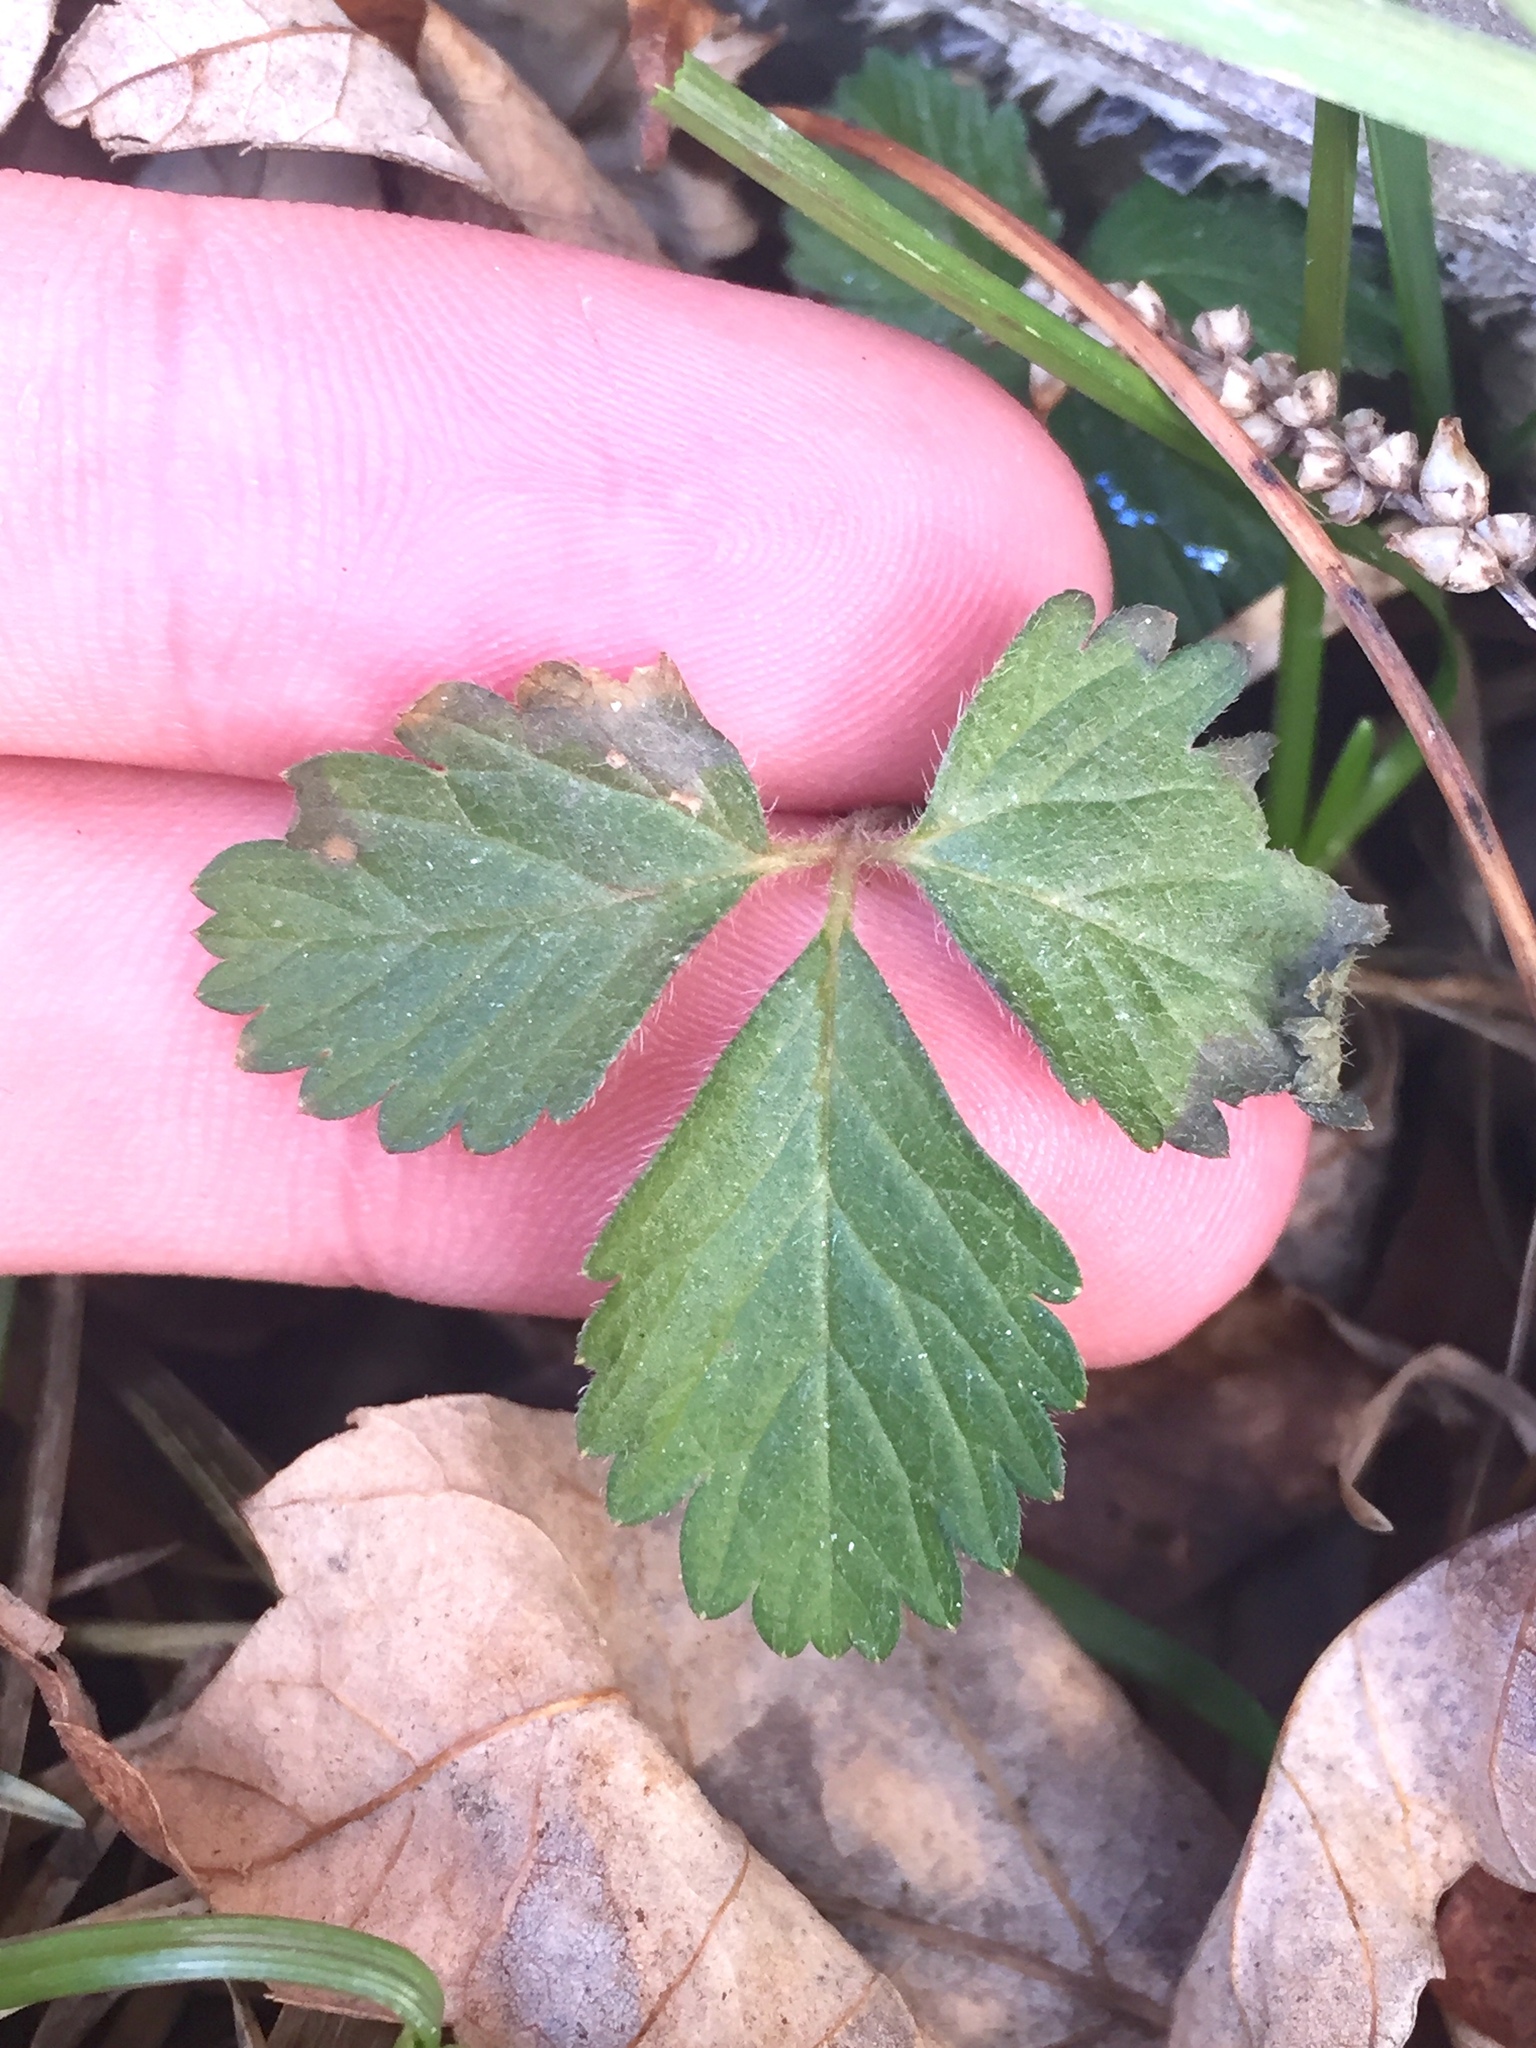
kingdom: Plantae
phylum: Tracheophyta
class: Magnoliopsida
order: Rosales
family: Rosaceae
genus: Potentilla
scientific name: Potentilla indica
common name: Yellow-flowered strawberry
